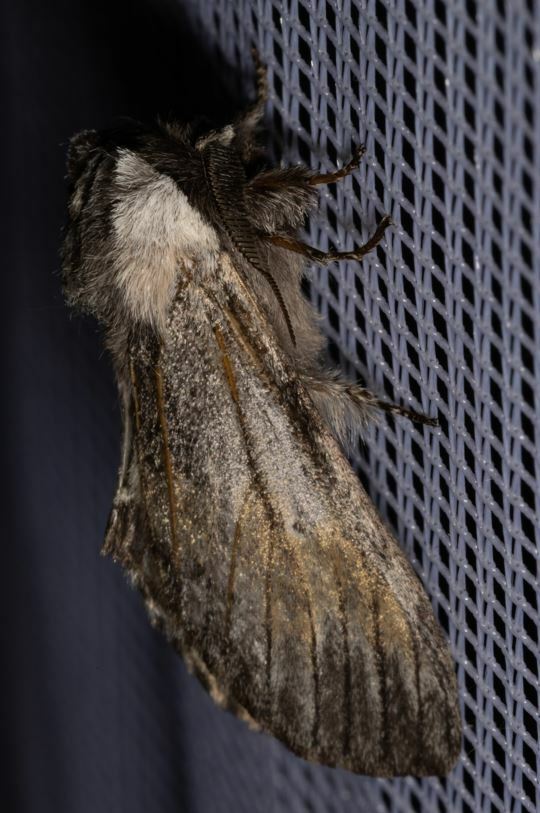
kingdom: Animalia
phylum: Arthropoda
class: Insecta
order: Lepidoptera
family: Notodontidae
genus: Harpyia
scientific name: Harpyia milhauseri
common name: Tawny prominent
